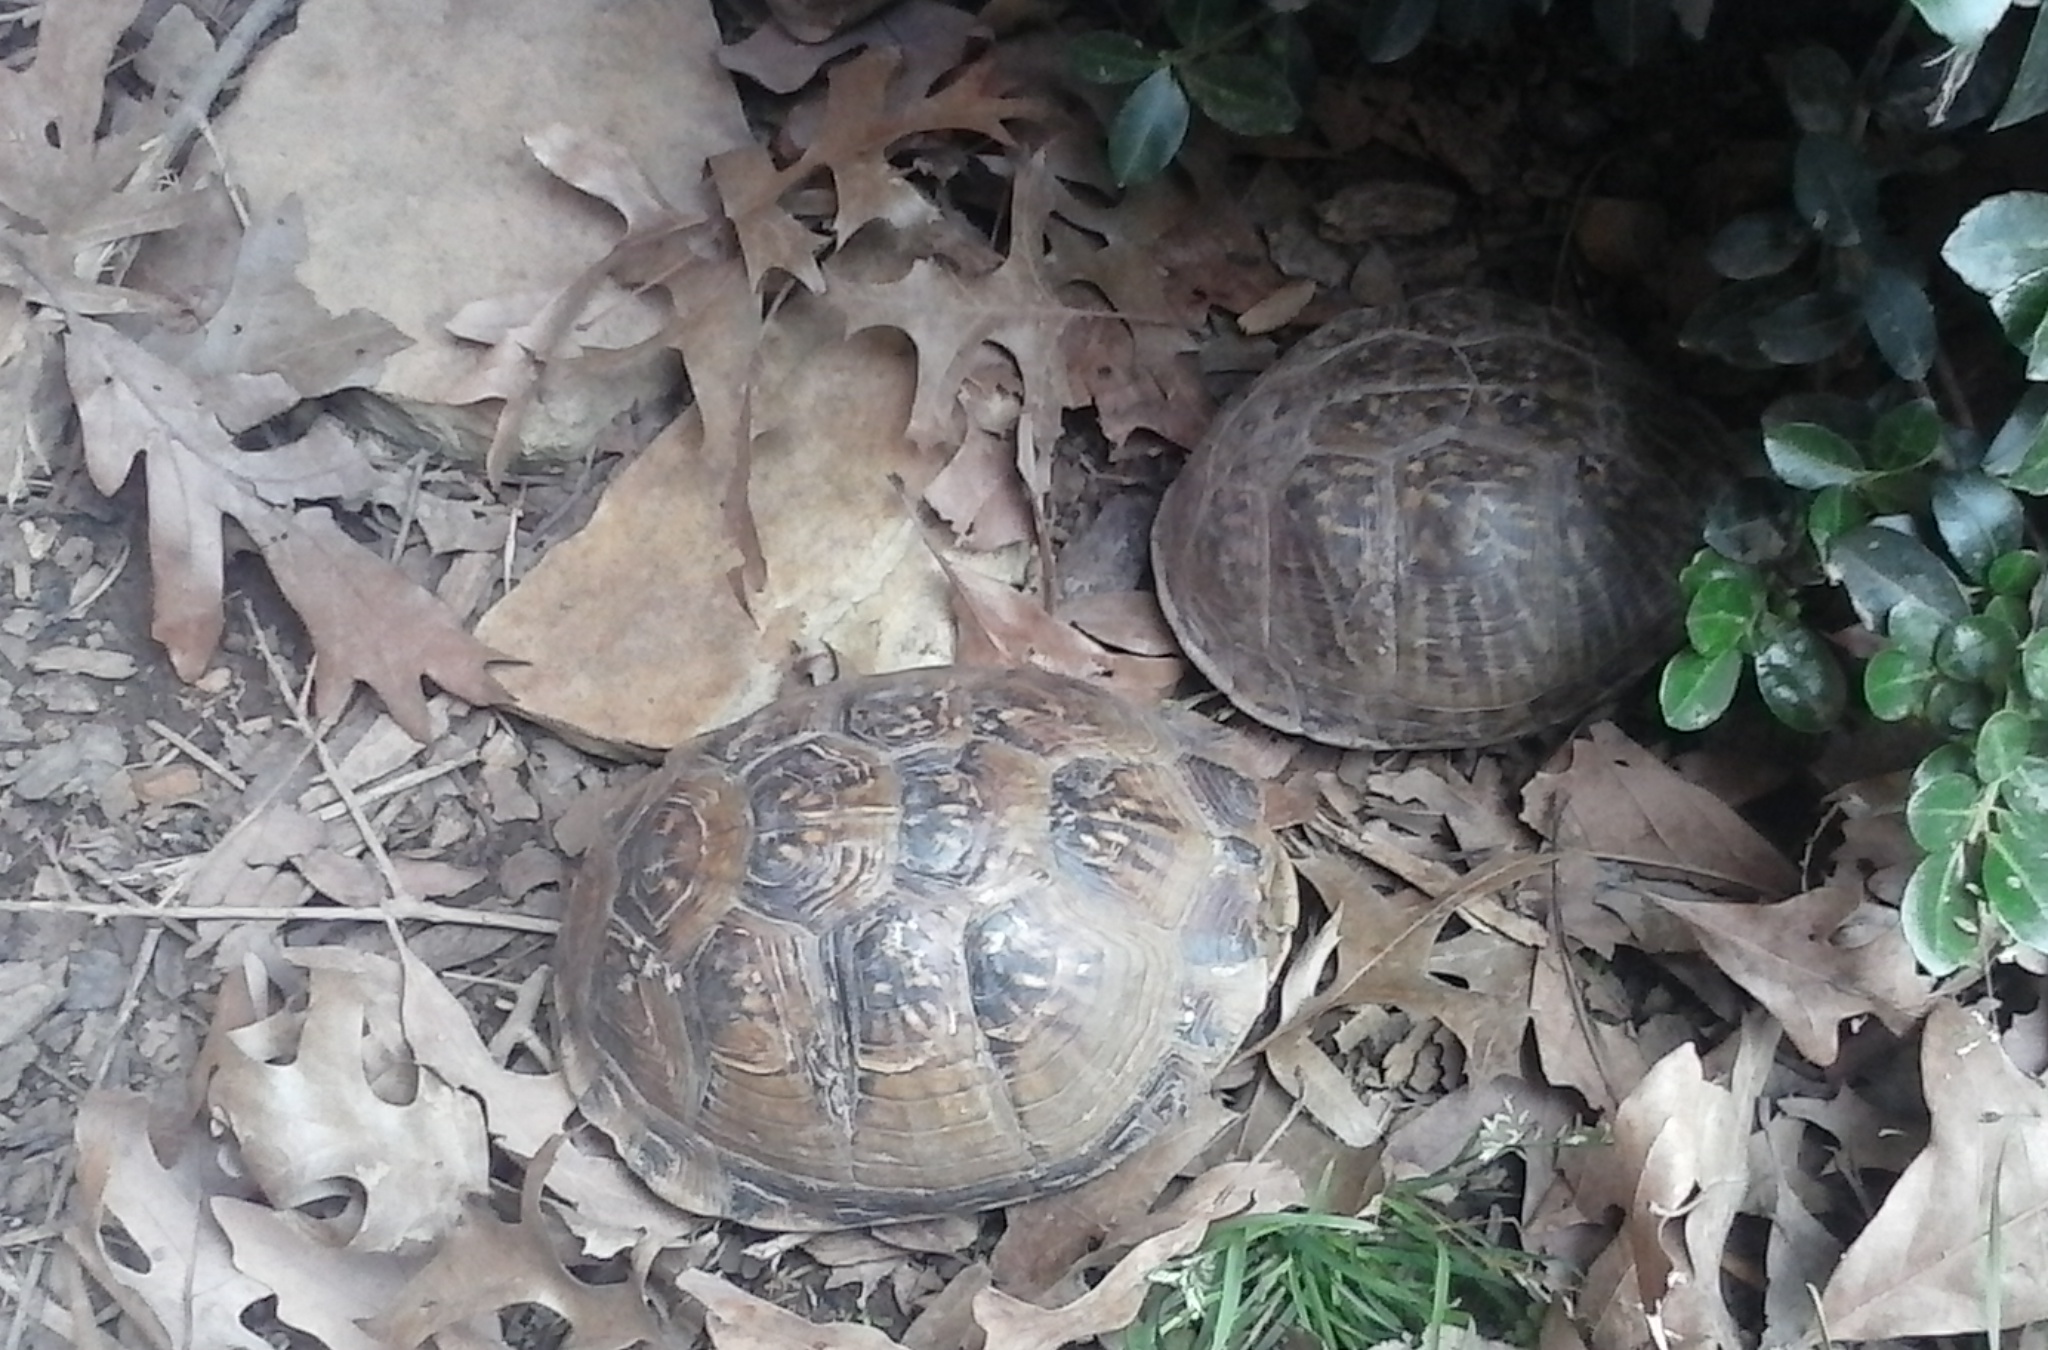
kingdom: Animalia
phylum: Chordata
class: Testudines
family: Emydidae
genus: Terrapene
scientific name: Terrapene carolina
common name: Common box turtle
